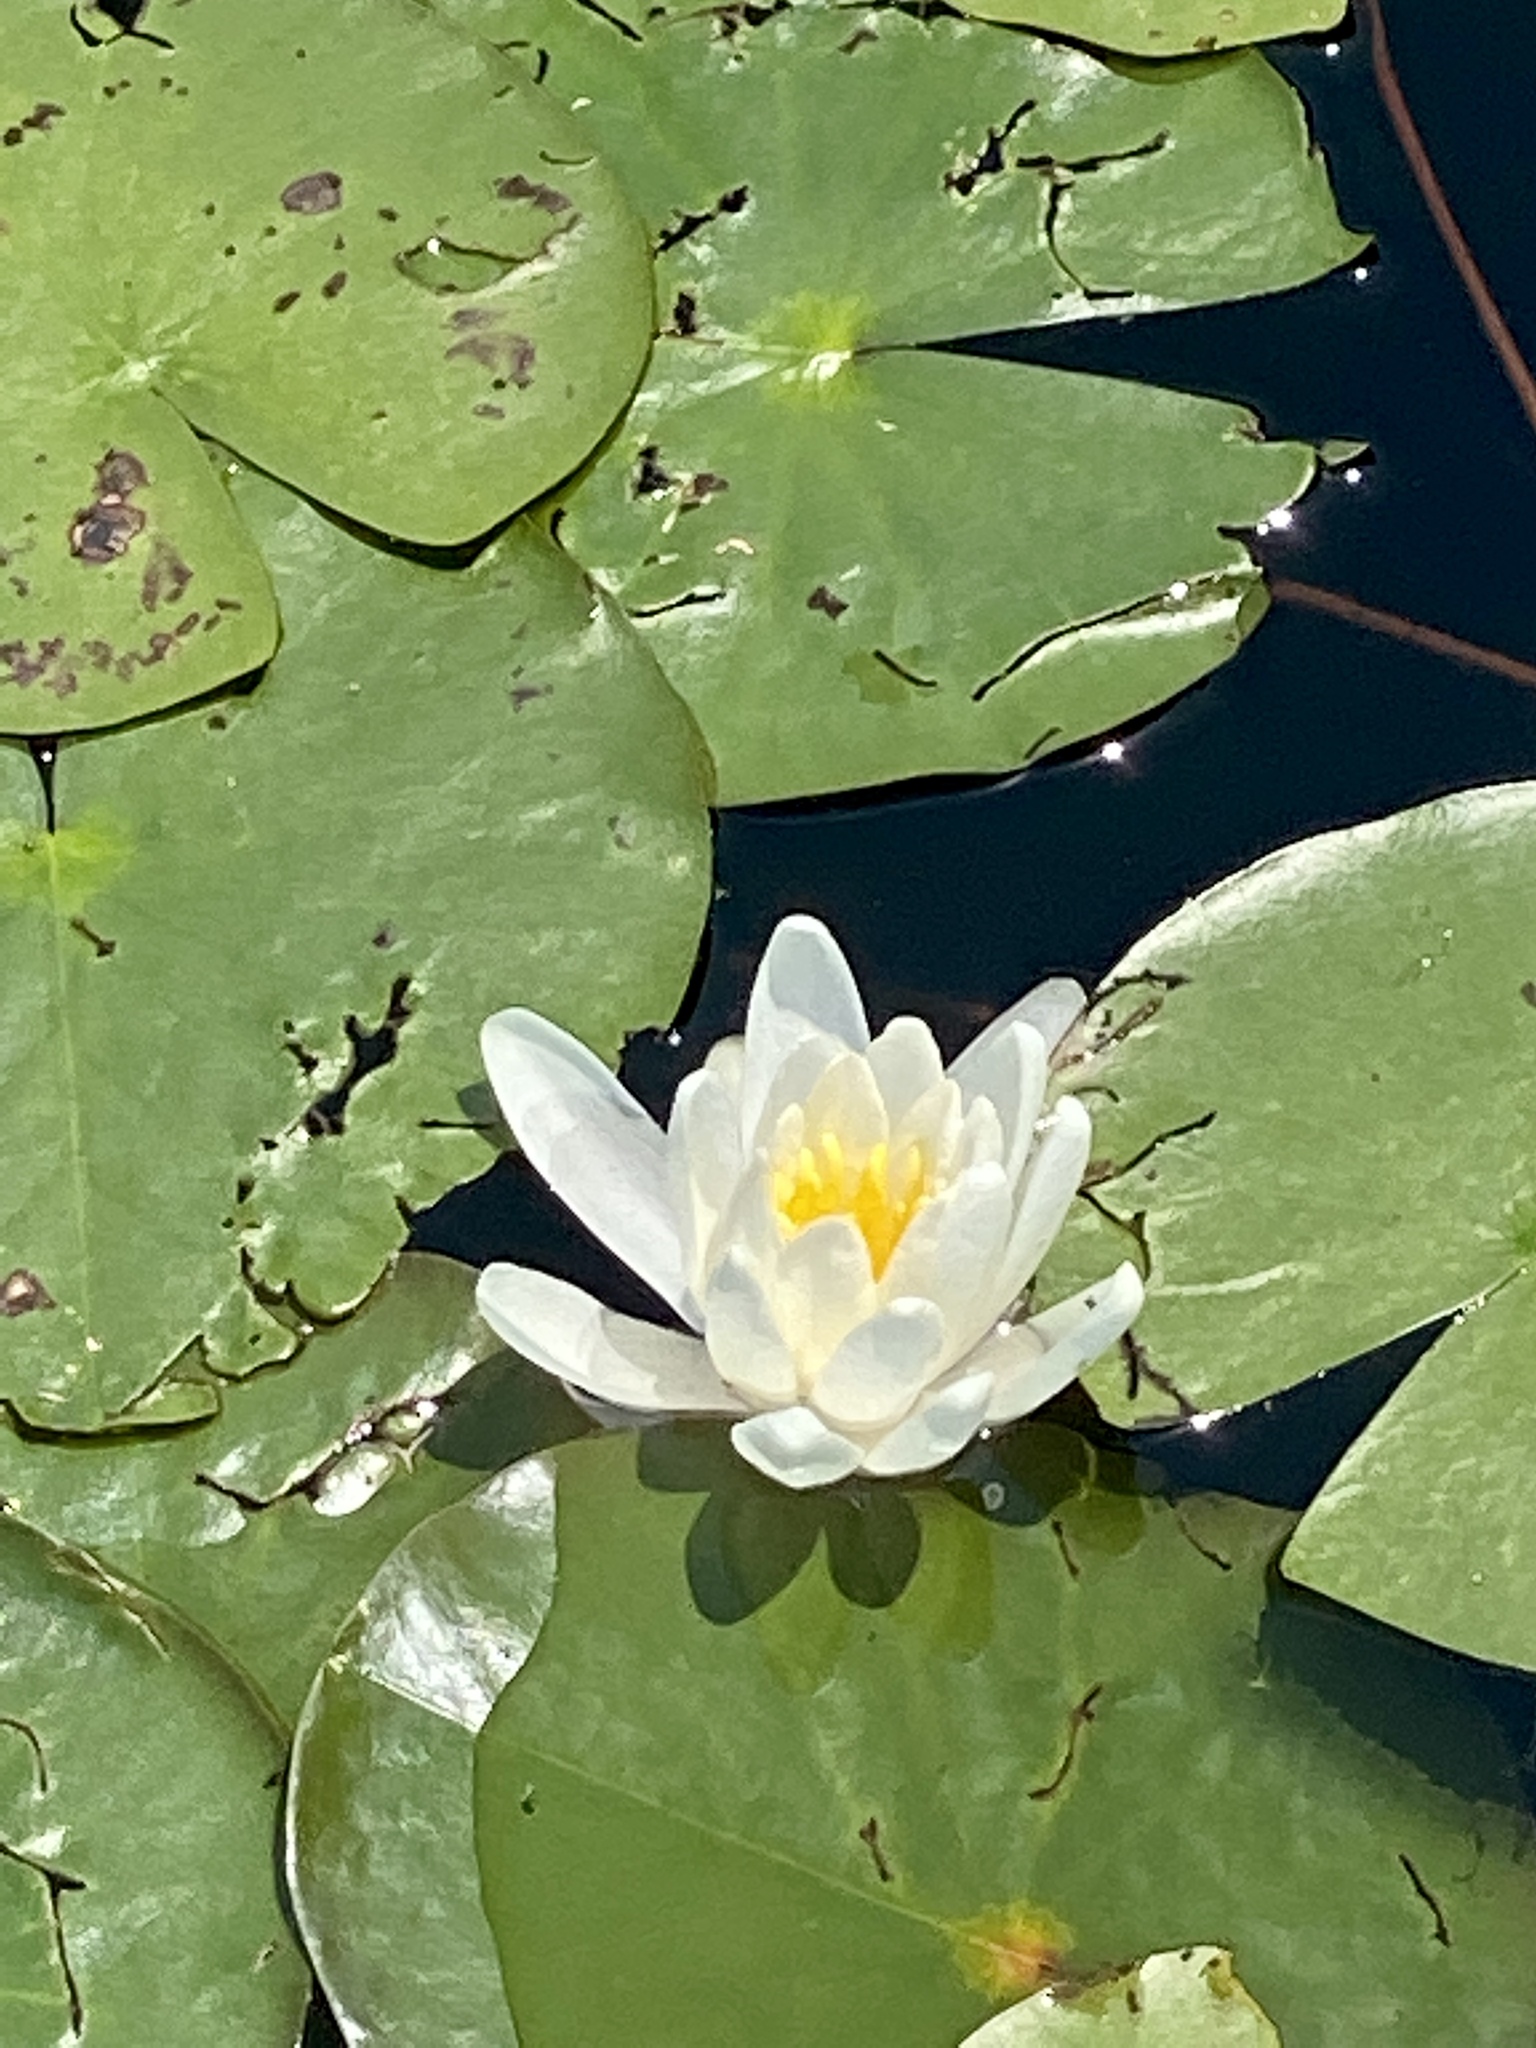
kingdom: Plantae
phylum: Tracheophyta
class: Magnoliopsida
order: Nymphaeales
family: Nymphaeaceae
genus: Nymphaea
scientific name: Nymphaea odorata
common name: Fragrant water-lily
